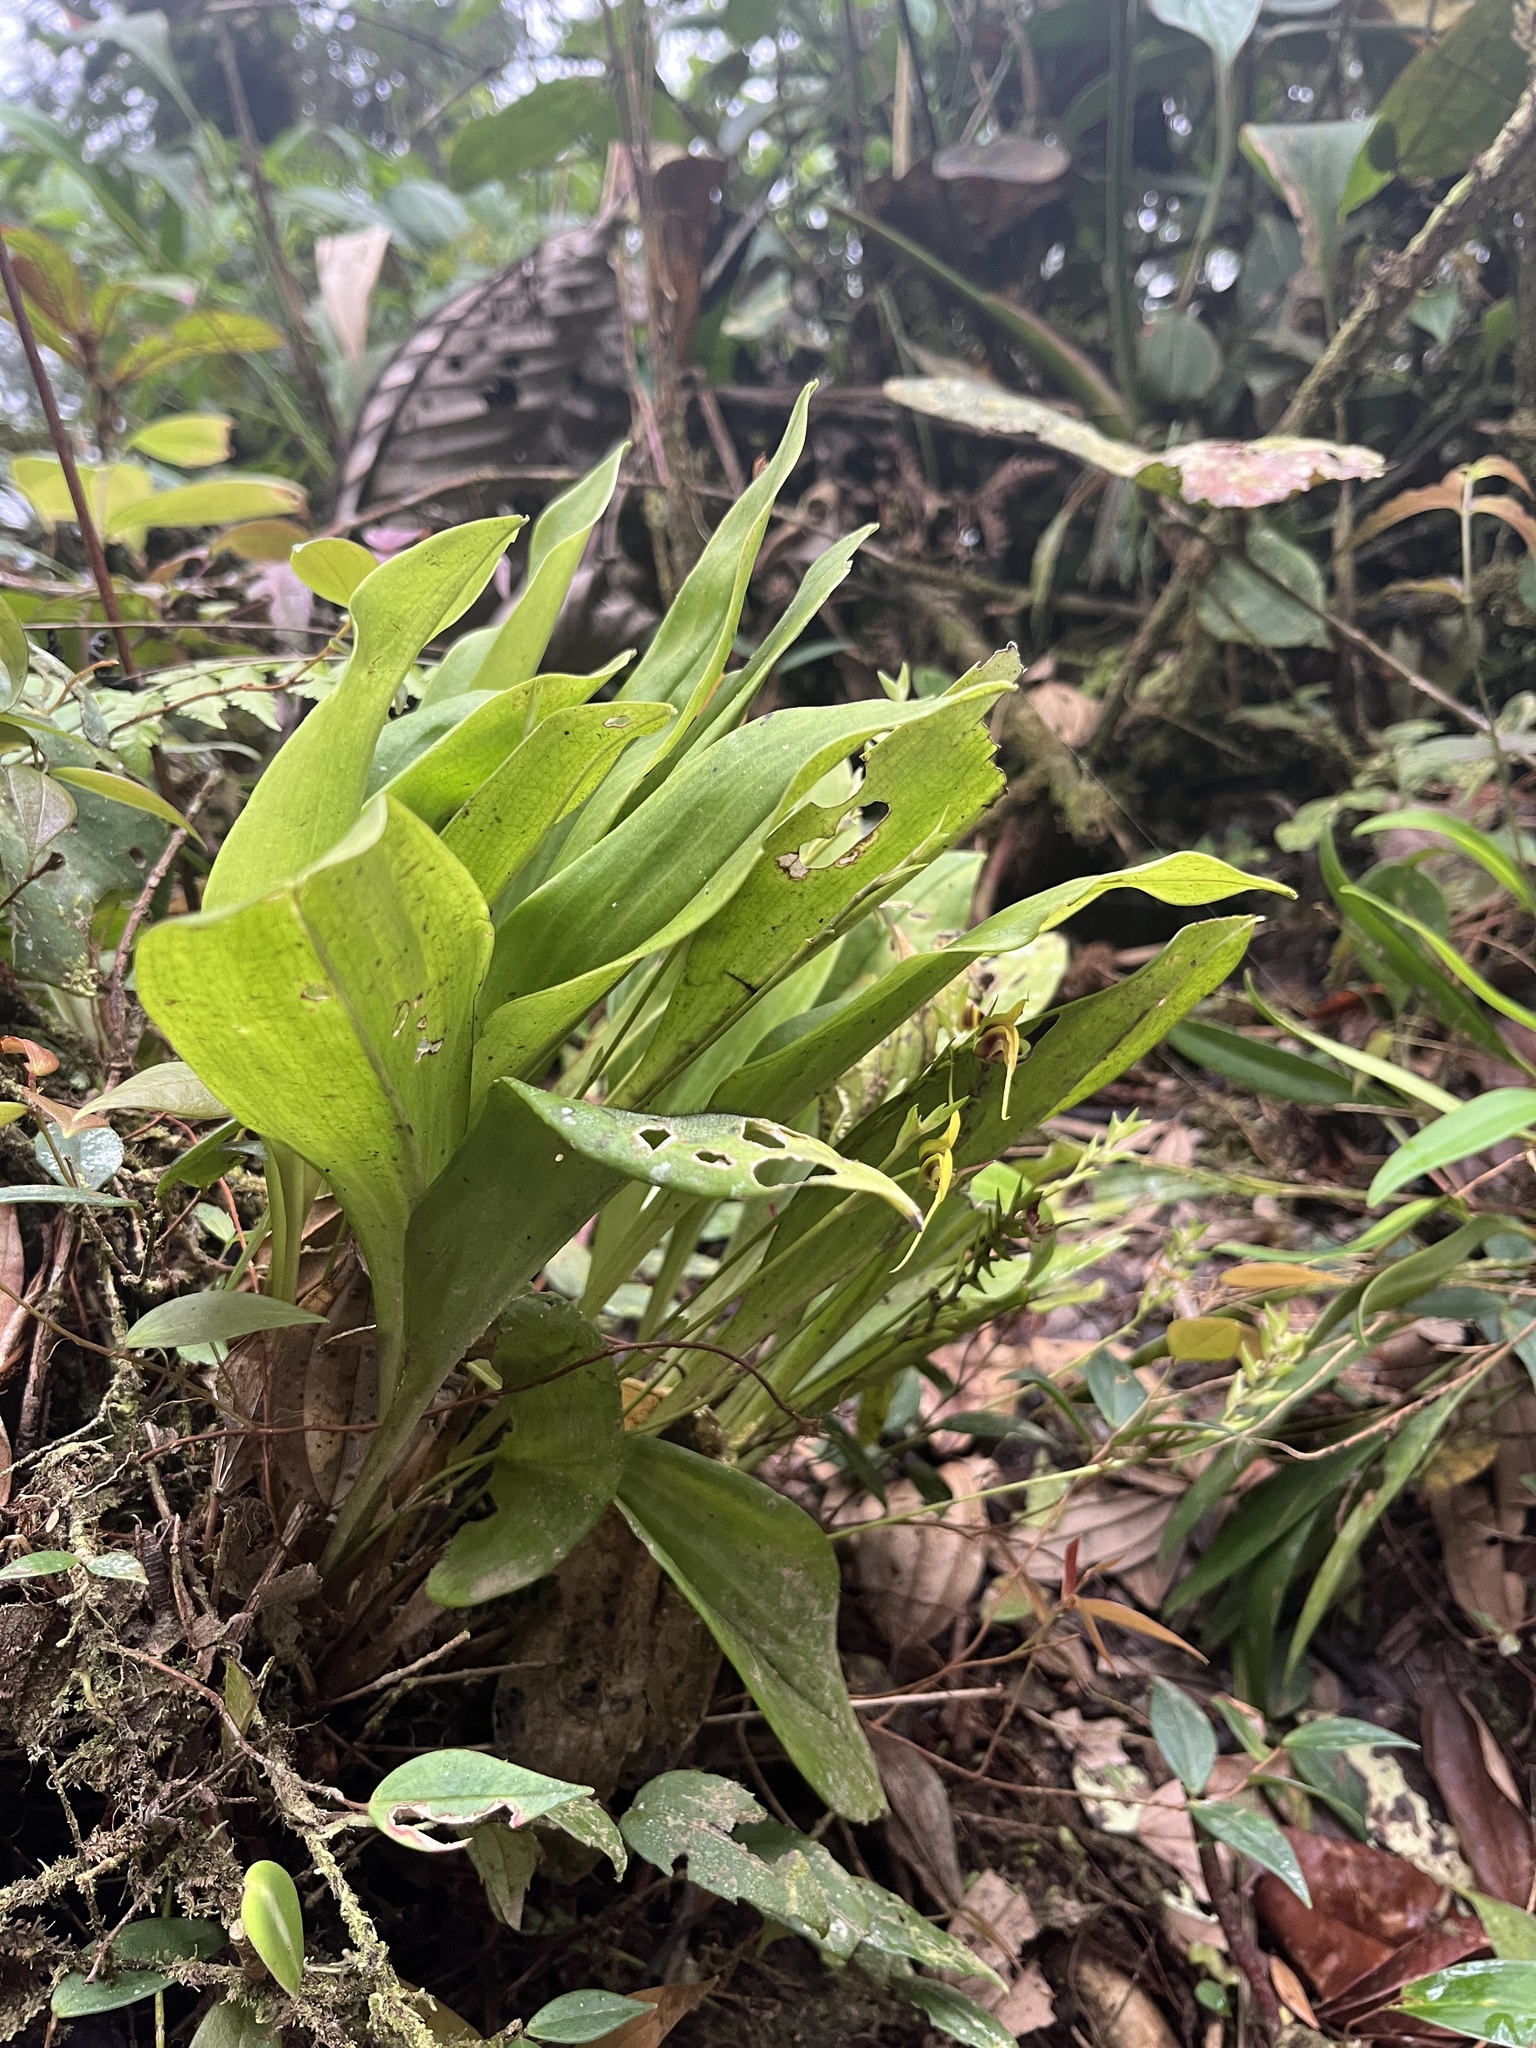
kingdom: Plantae
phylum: Tracheophyta
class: Liliopsida
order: Asparagales
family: Orchidaceae
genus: Scaphosepalum
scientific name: Scaphosepalum grande
